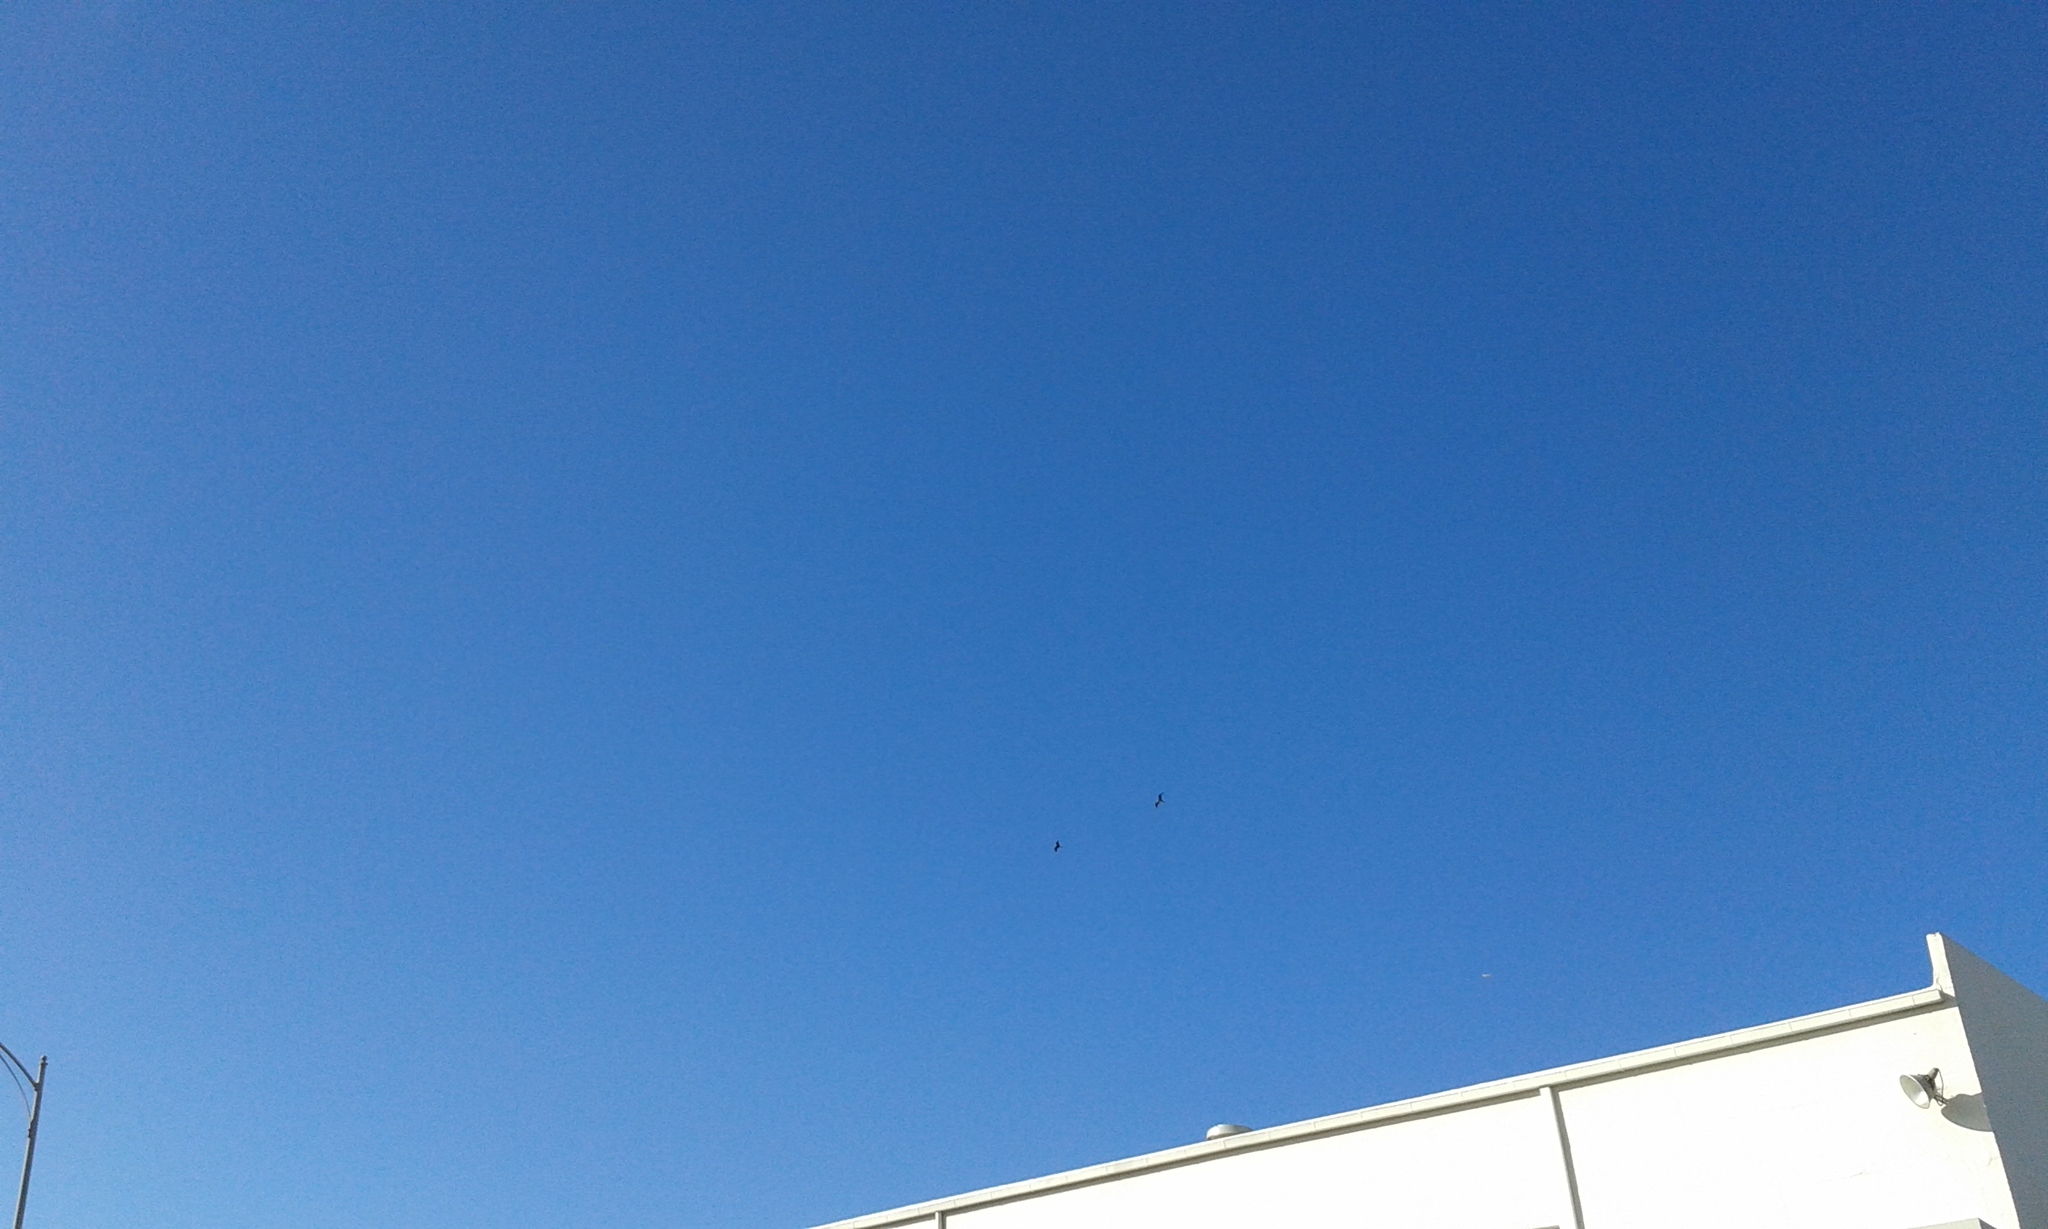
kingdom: Animalia
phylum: Chordata
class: Aves
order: Suliformes
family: Fregatidae
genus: Fregata
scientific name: Fregata minor
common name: Great frigatebird
